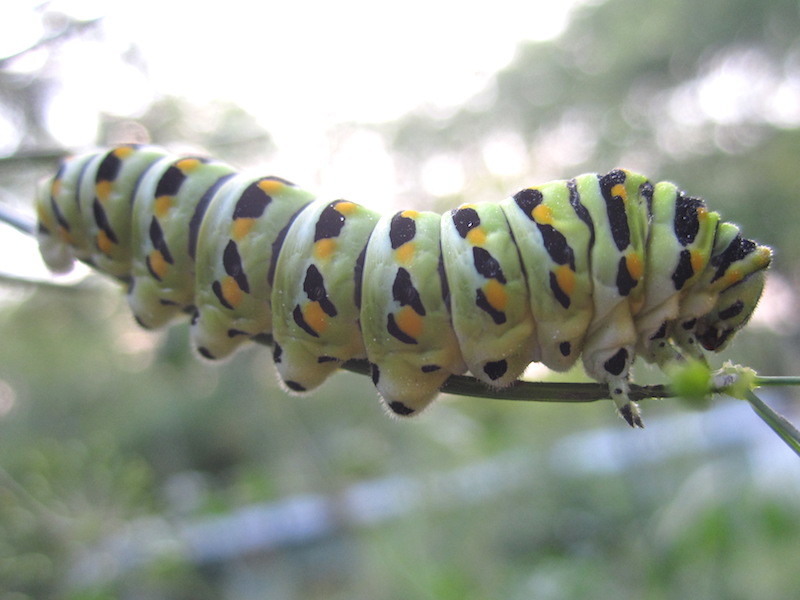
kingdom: Animalia
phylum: Arthropoda
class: Insecta
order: Lepidoptera
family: Papilionidae
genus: Papilio
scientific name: Papilio polyxenes
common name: Black swallowtail
